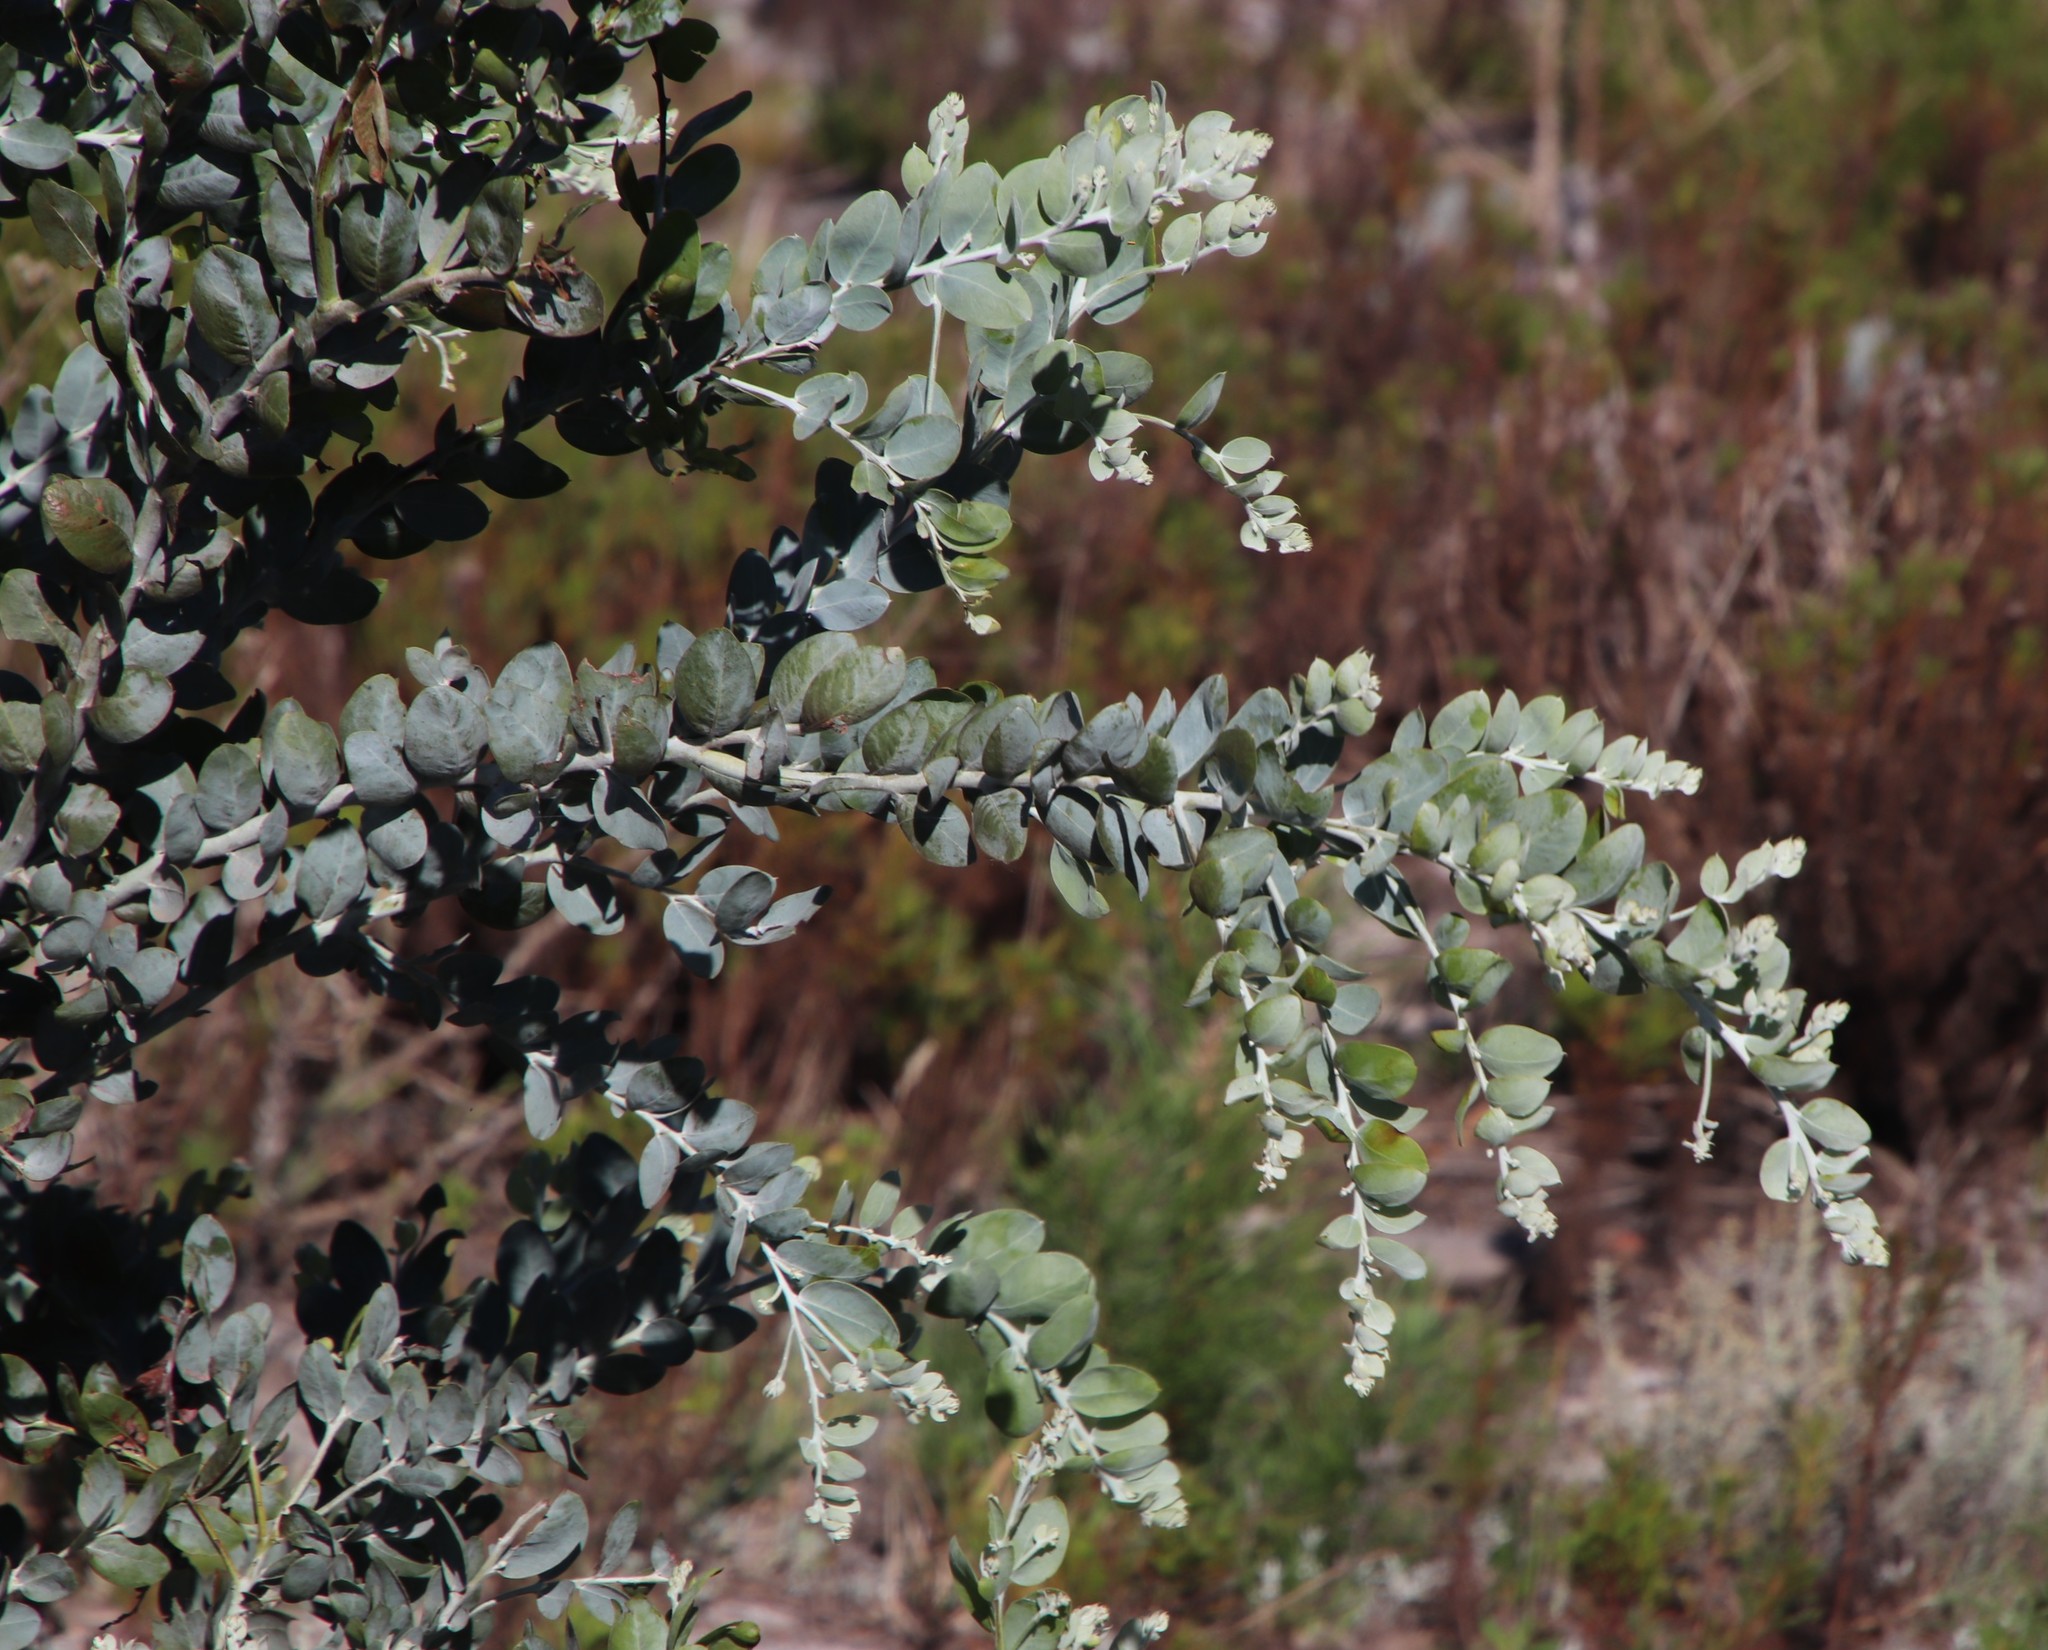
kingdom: Plantae
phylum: Tracheophyta
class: Magnoliopsida
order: Fabales
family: Fabaceae
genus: Acacia
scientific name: Acacia podalyriifolia
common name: Pearl wattle
